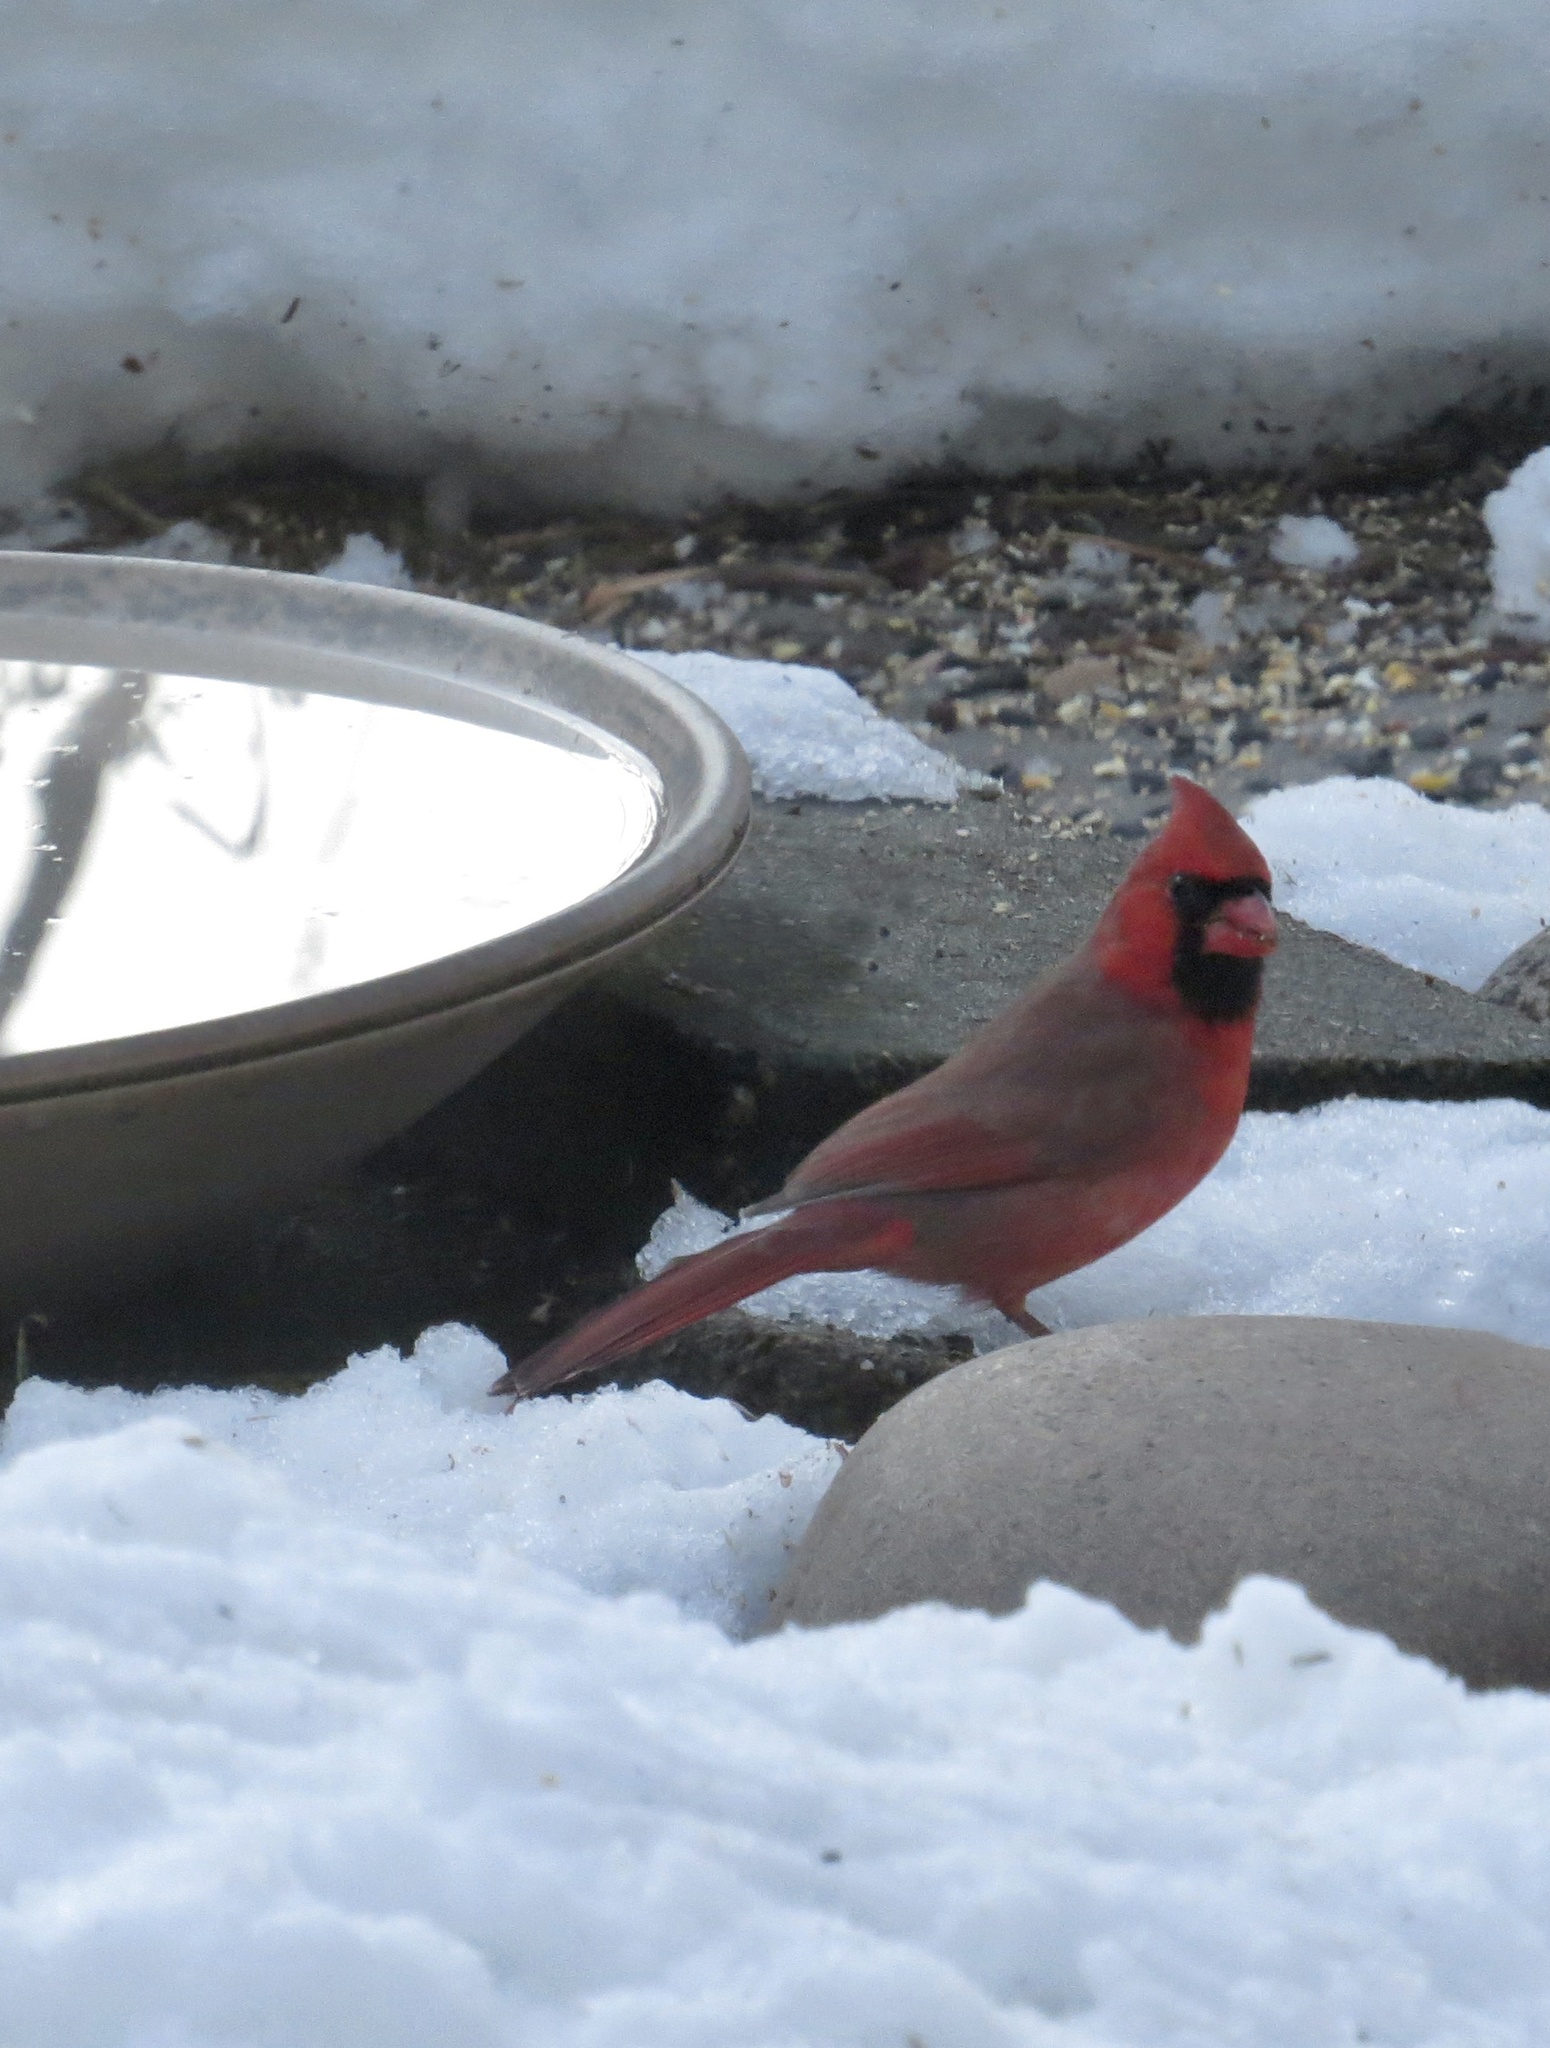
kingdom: Animalia
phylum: Chordata
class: Aves
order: Passeriformes
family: Cardinalidae
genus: Cardinalis
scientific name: Cardinalis cardinalis
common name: Northern cardinal
